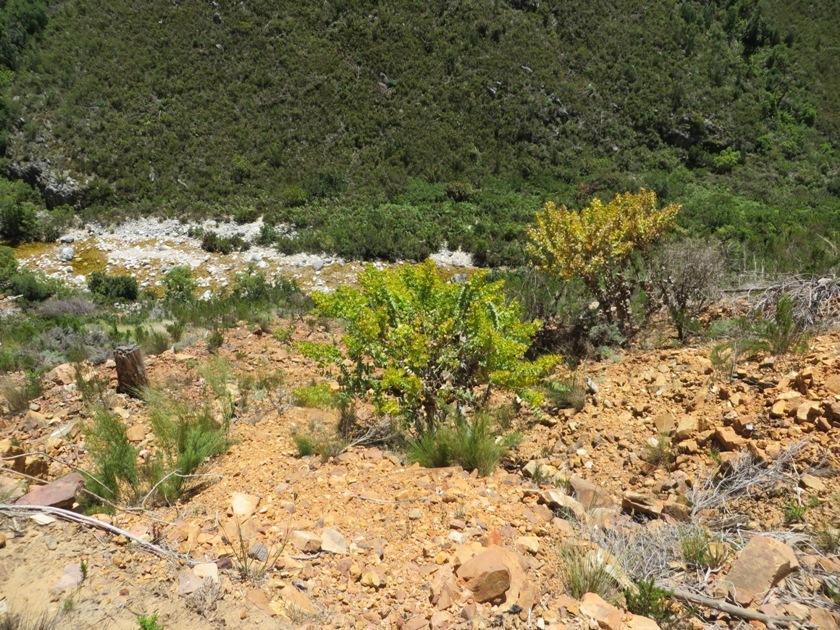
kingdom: Plantae
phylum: Tracheophyta
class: Magnoliopsida
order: Fabales
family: Fabaceae
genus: Rafnia
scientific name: Rafnia amplexicaulis
